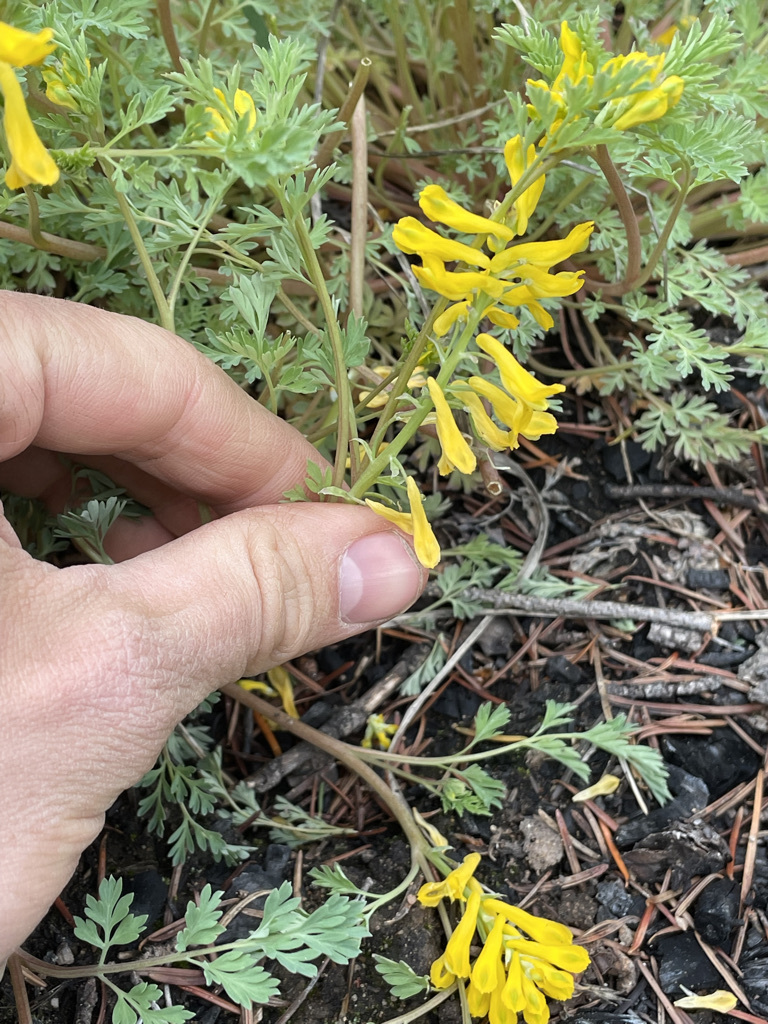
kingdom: Plantae
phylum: Tracheophyta
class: Magnoliopsida
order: Ranunculales
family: Papaveraceae
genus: Corydalis
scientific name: Corydalis aurea
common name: Golden corydalis
